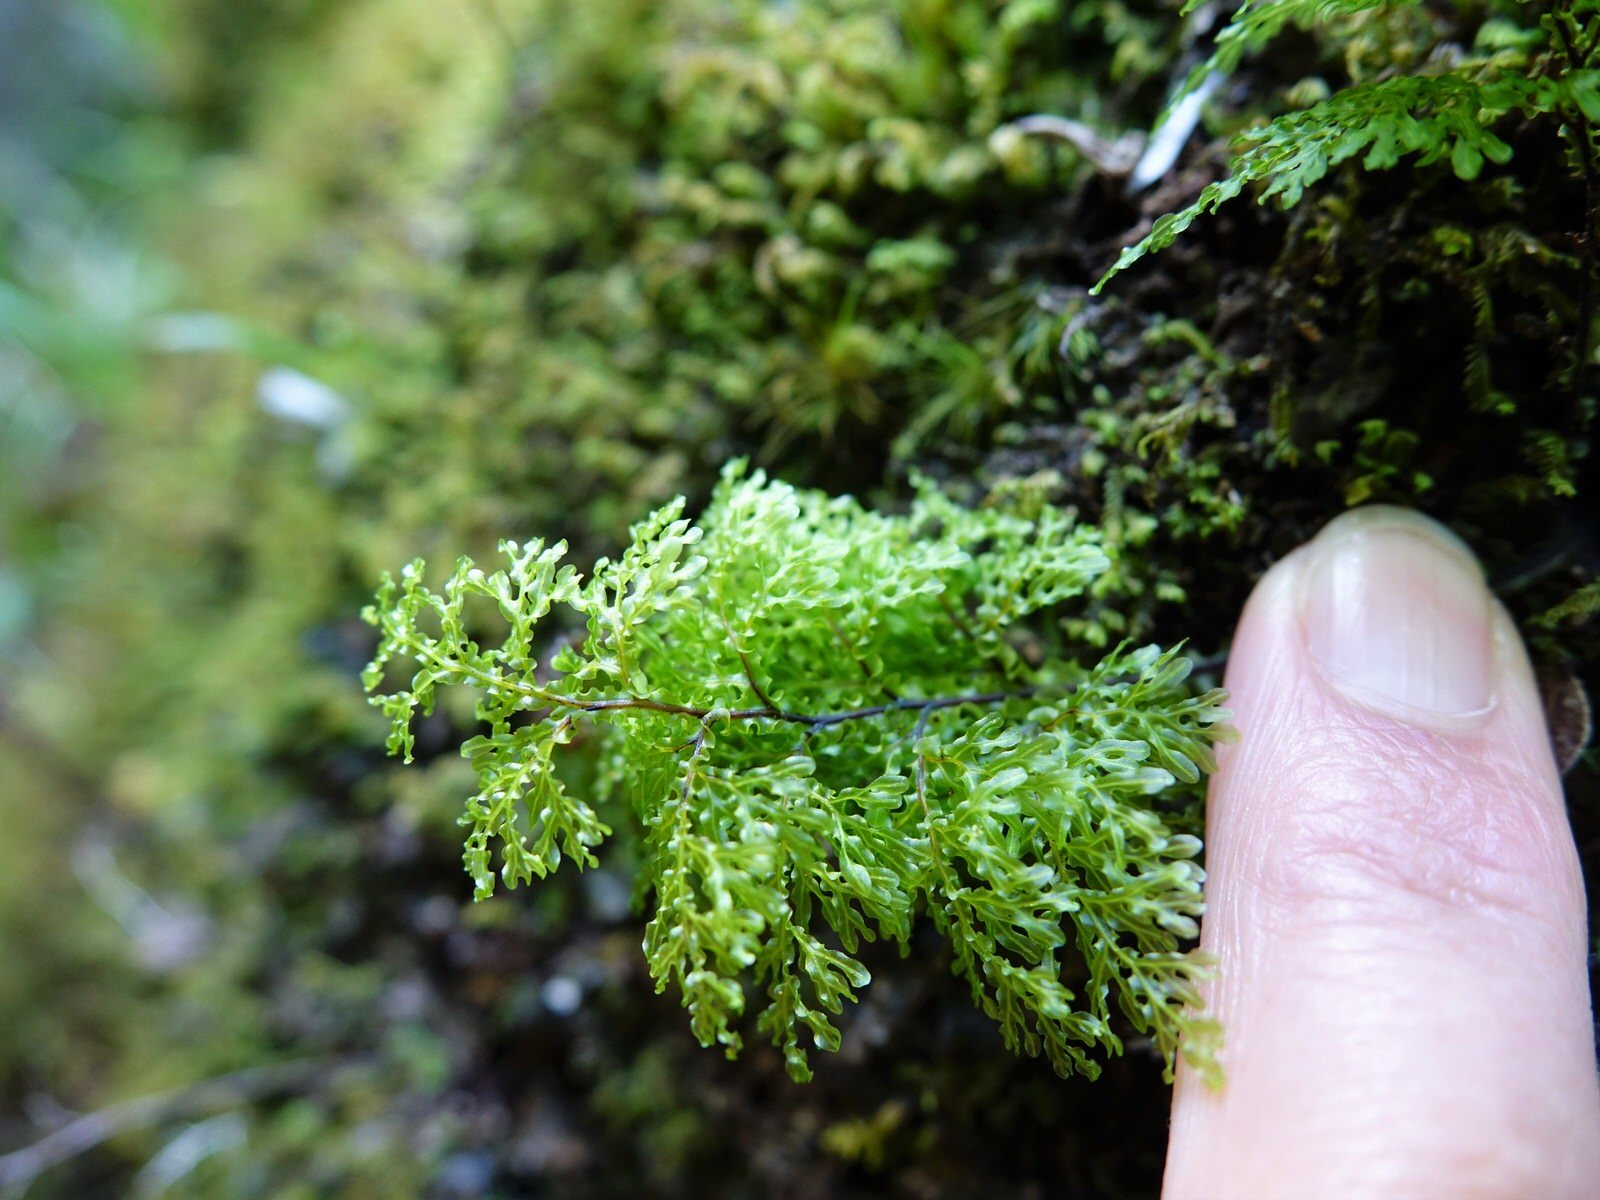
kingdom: Plantae
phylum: Tracheophyta
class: Polypodiopsida
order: Hymenophyllales
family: Hymenophyllaceae
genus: Hymenophyllum
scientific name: Hymenophyllum flexuosum
